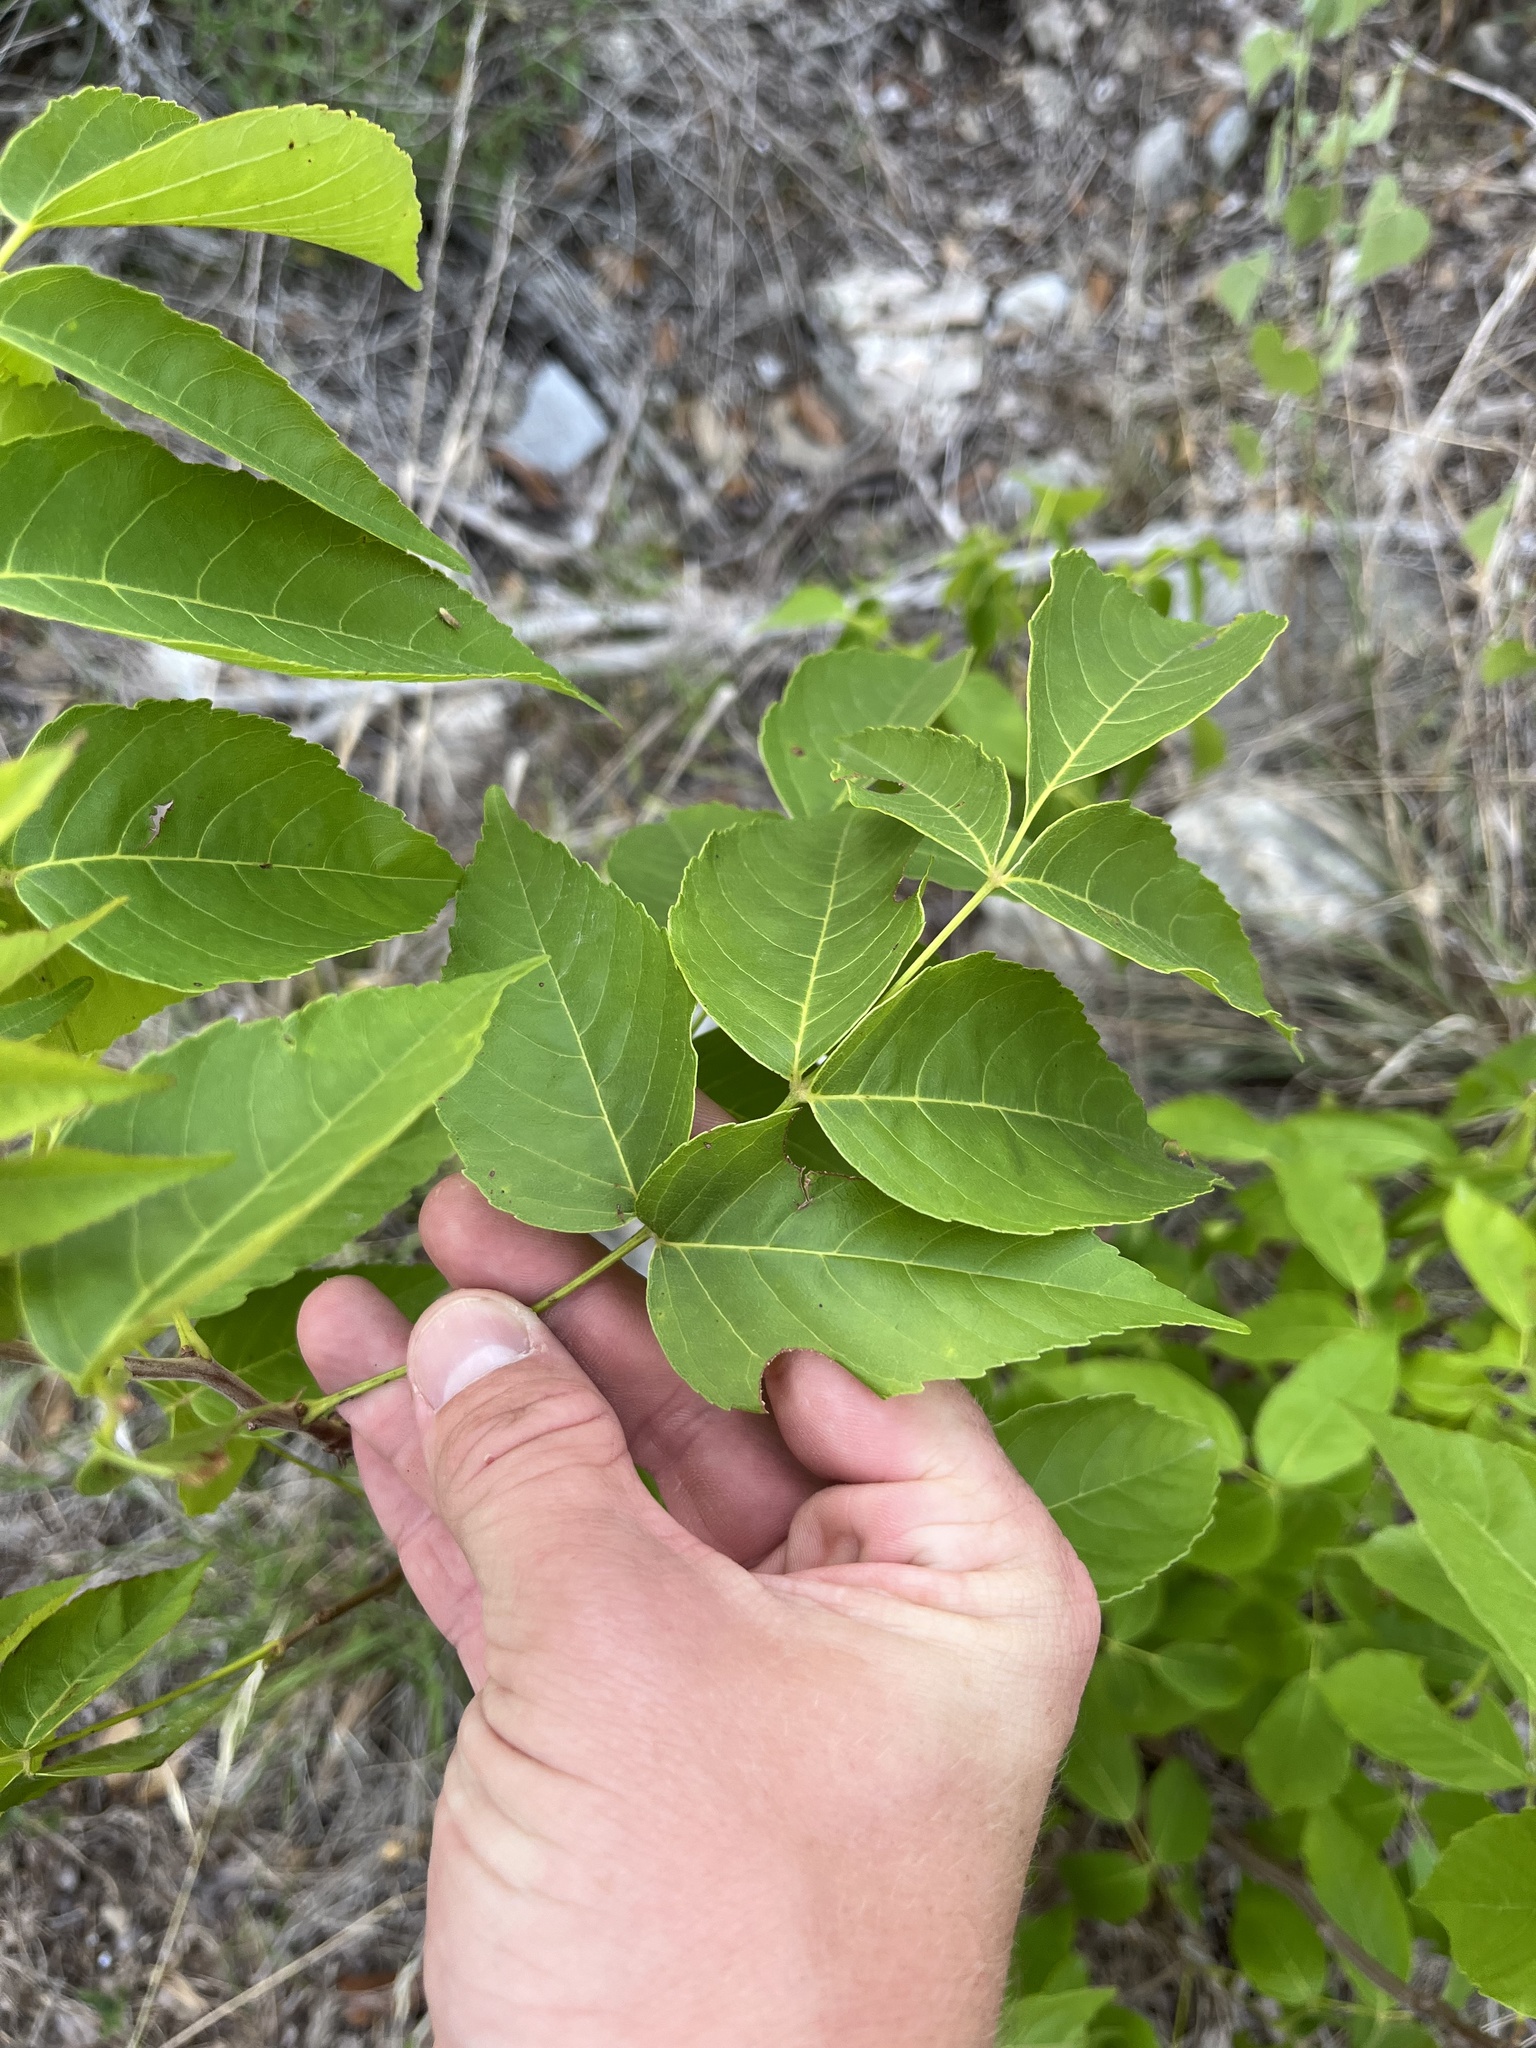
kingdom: Plantae
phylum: Tracheophyta
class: Magnoliopsida
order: Sapindales
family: Sapindaceae
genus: Ungnadia
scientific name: Ungnadia speciosa
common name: Texas-buckeye
